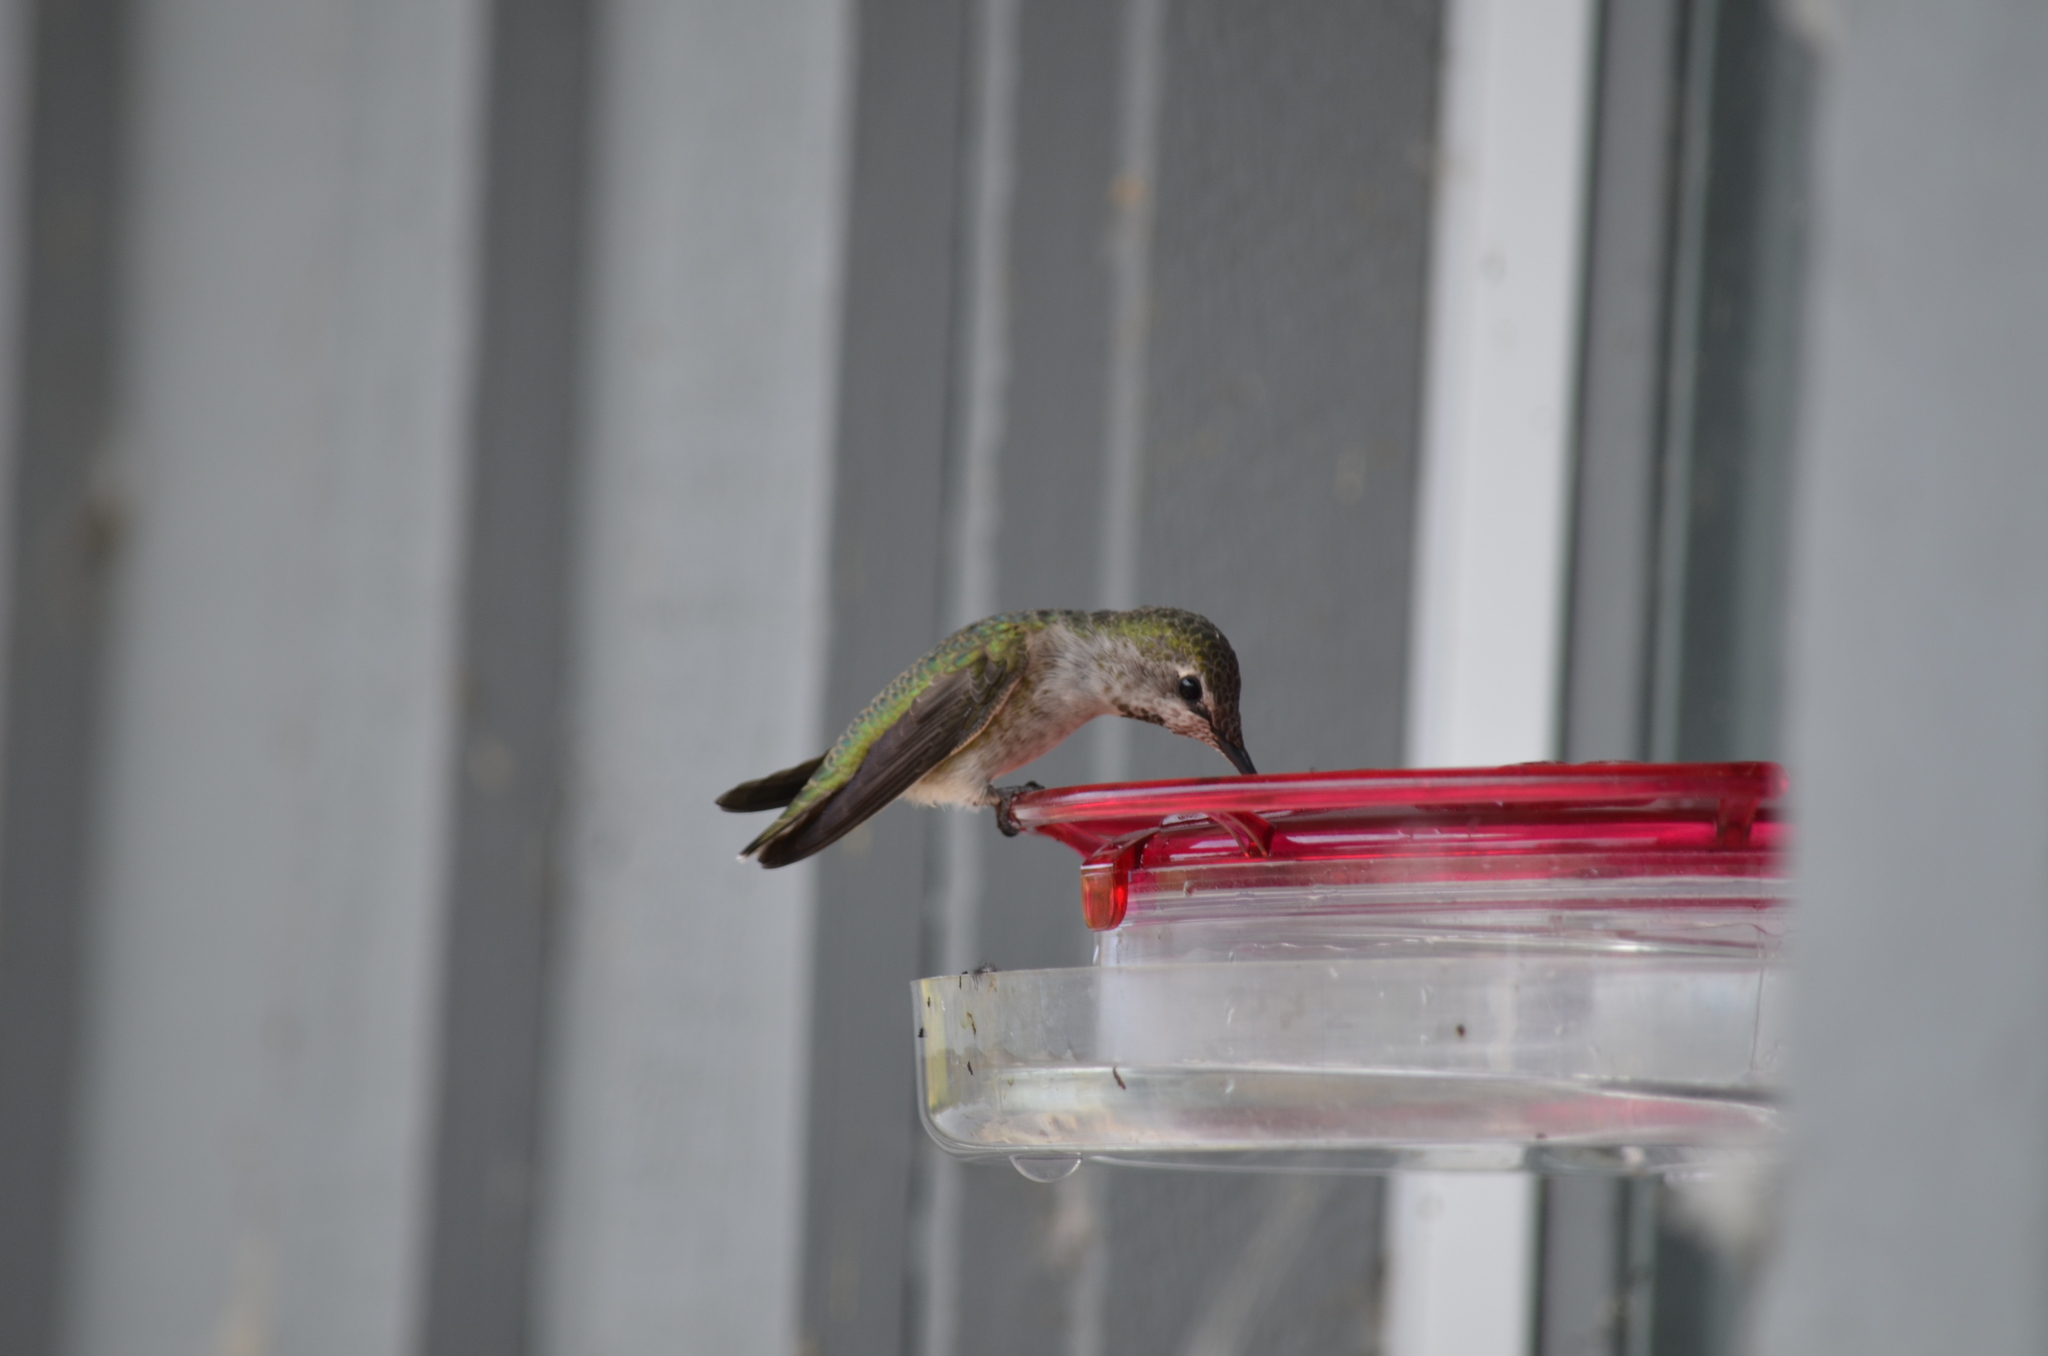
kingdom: Animalia
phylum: Chordata
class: Aves
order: Apodiformes
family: Trochilidae
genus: Calypte
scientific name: Calypte anna
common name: Anna's hummingbird
